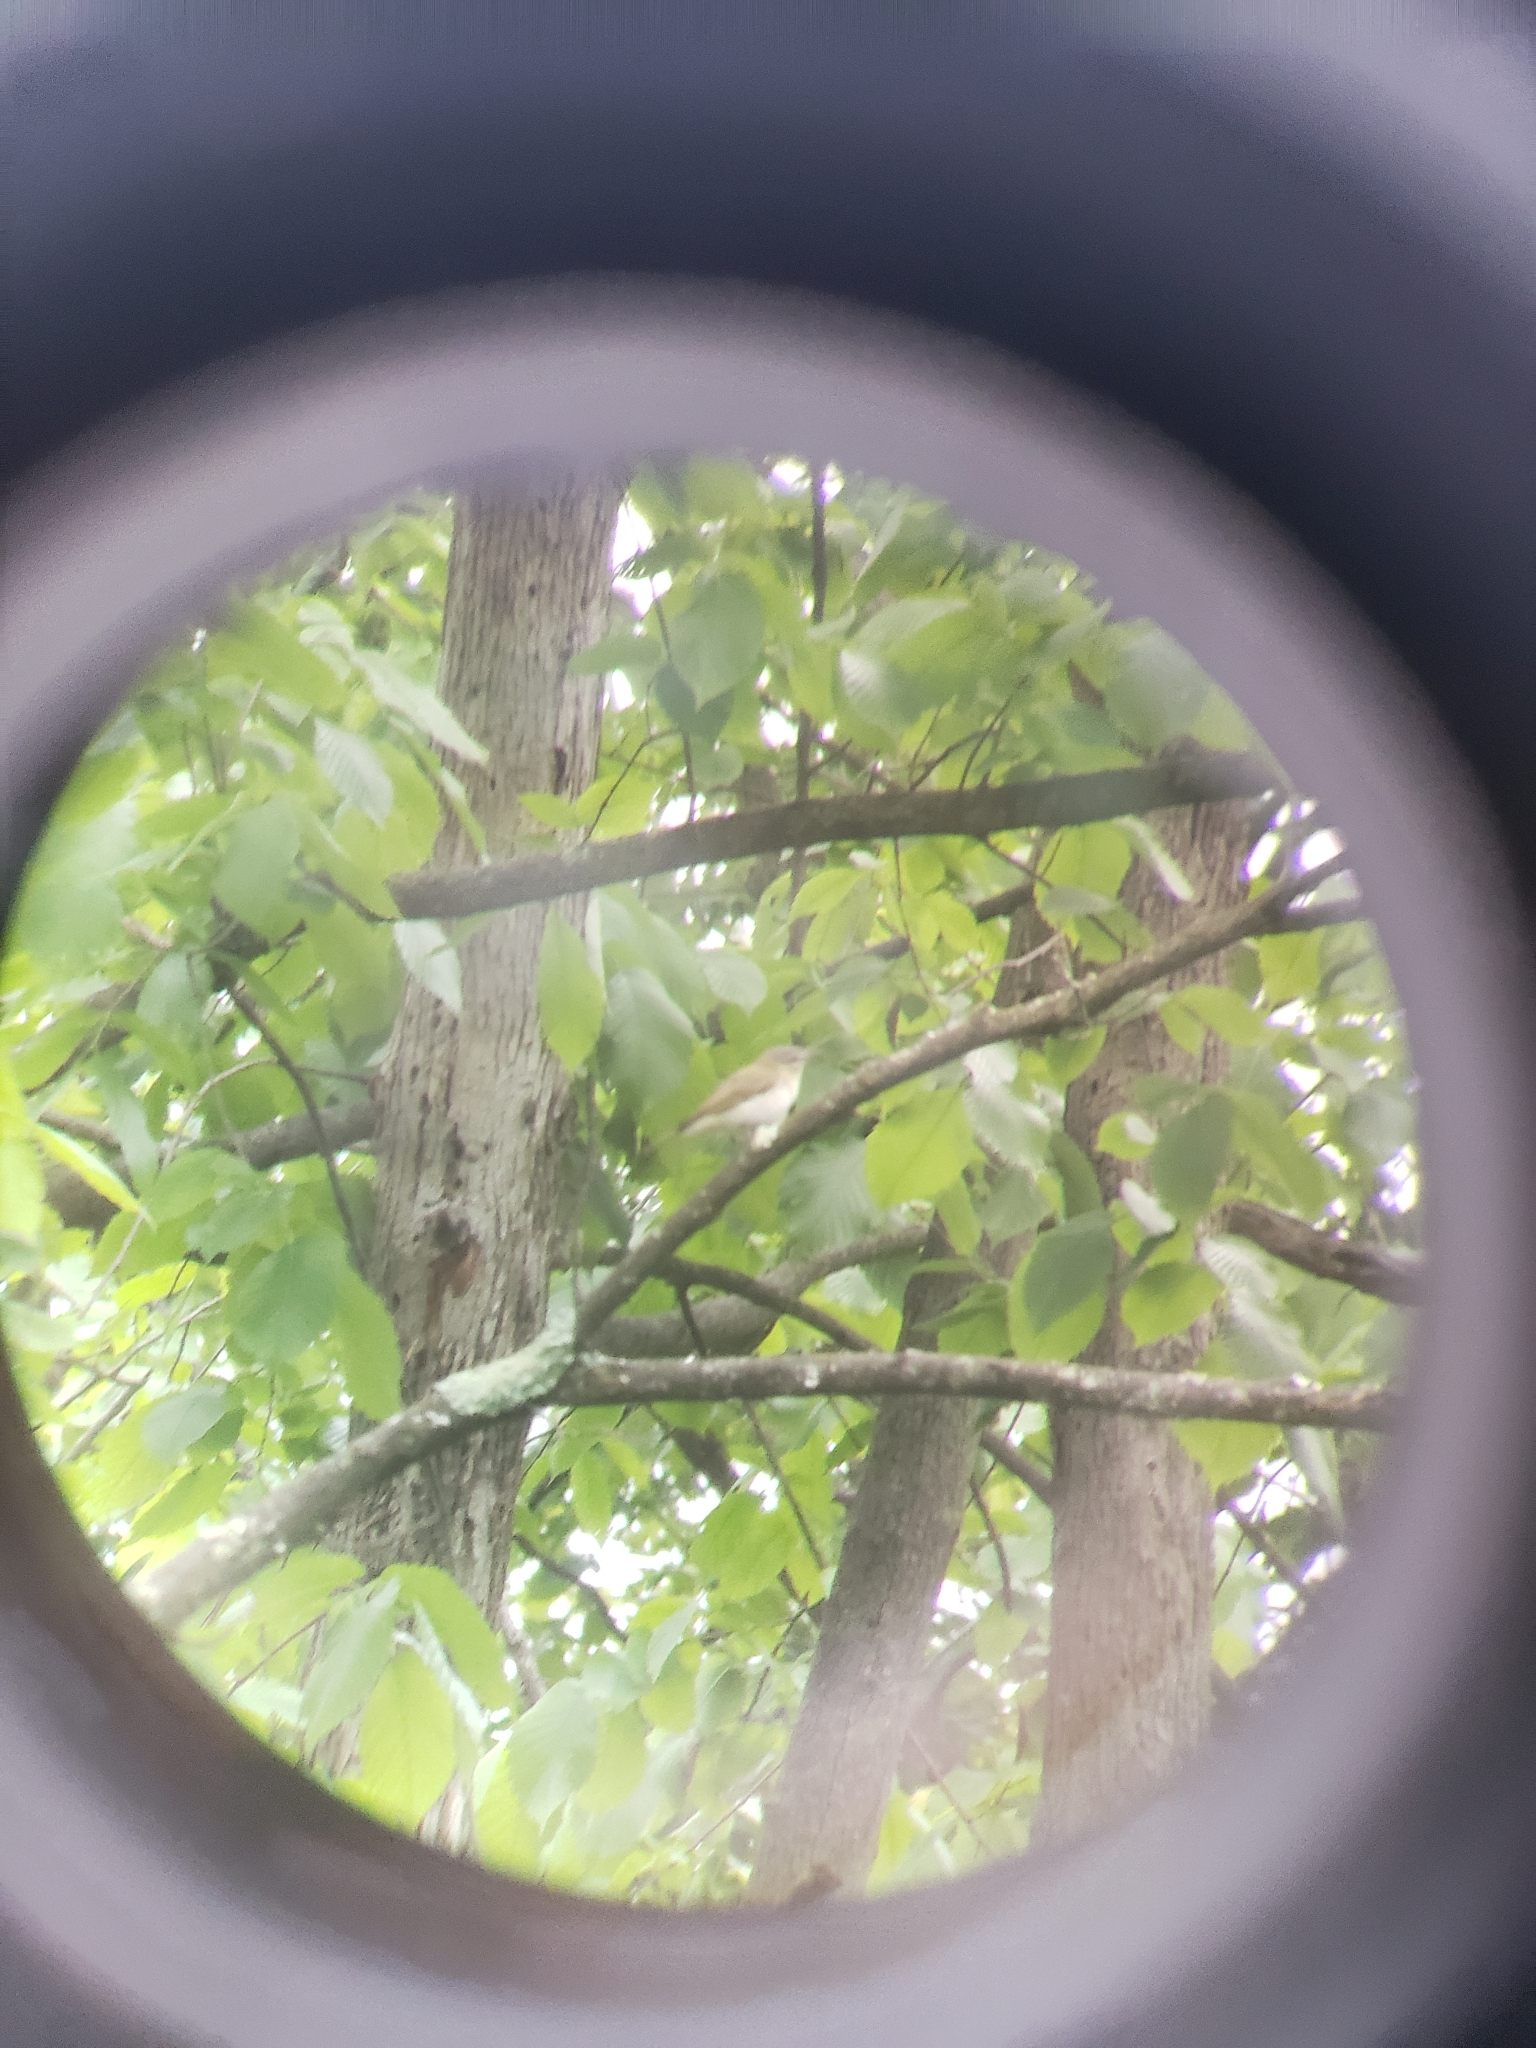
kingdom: Animalia
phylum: Chordata
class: Aves
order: Passeriformes
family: Vireonidae
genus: Vireo
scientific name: Vireo olivaceus
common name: Red-eyed vireo
